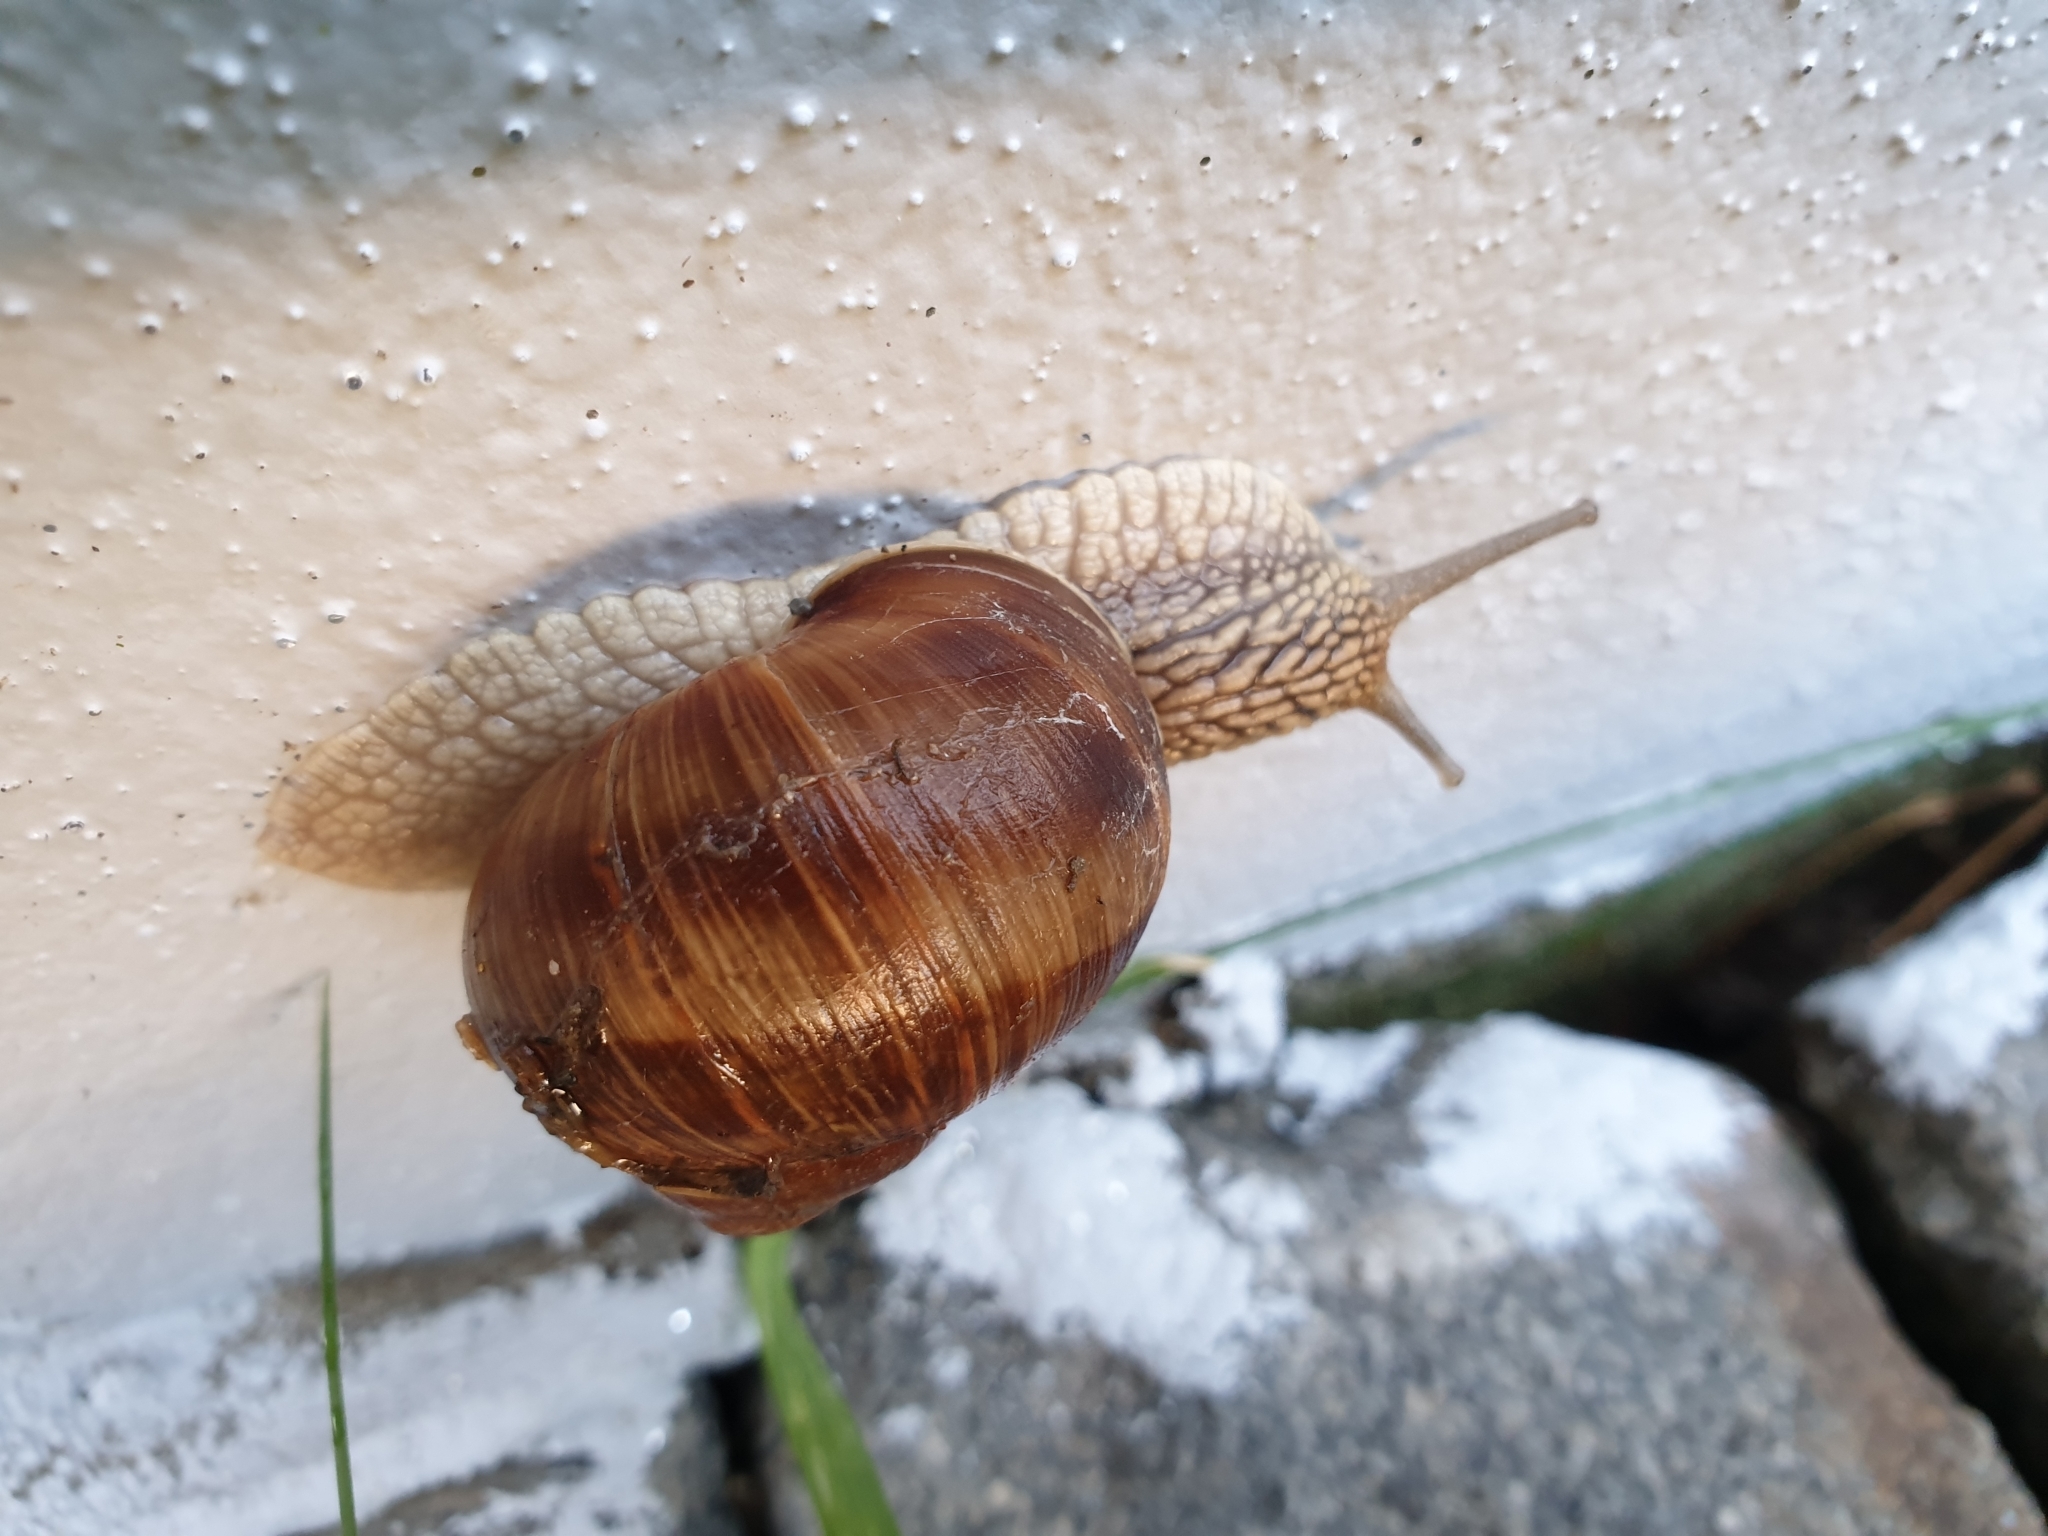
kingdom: Animalia
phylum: Mollusca
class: Gastropoda
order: Stylommatophora
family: Helicidae
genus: Helix
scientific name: Helix pomatia
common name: Roman snail
